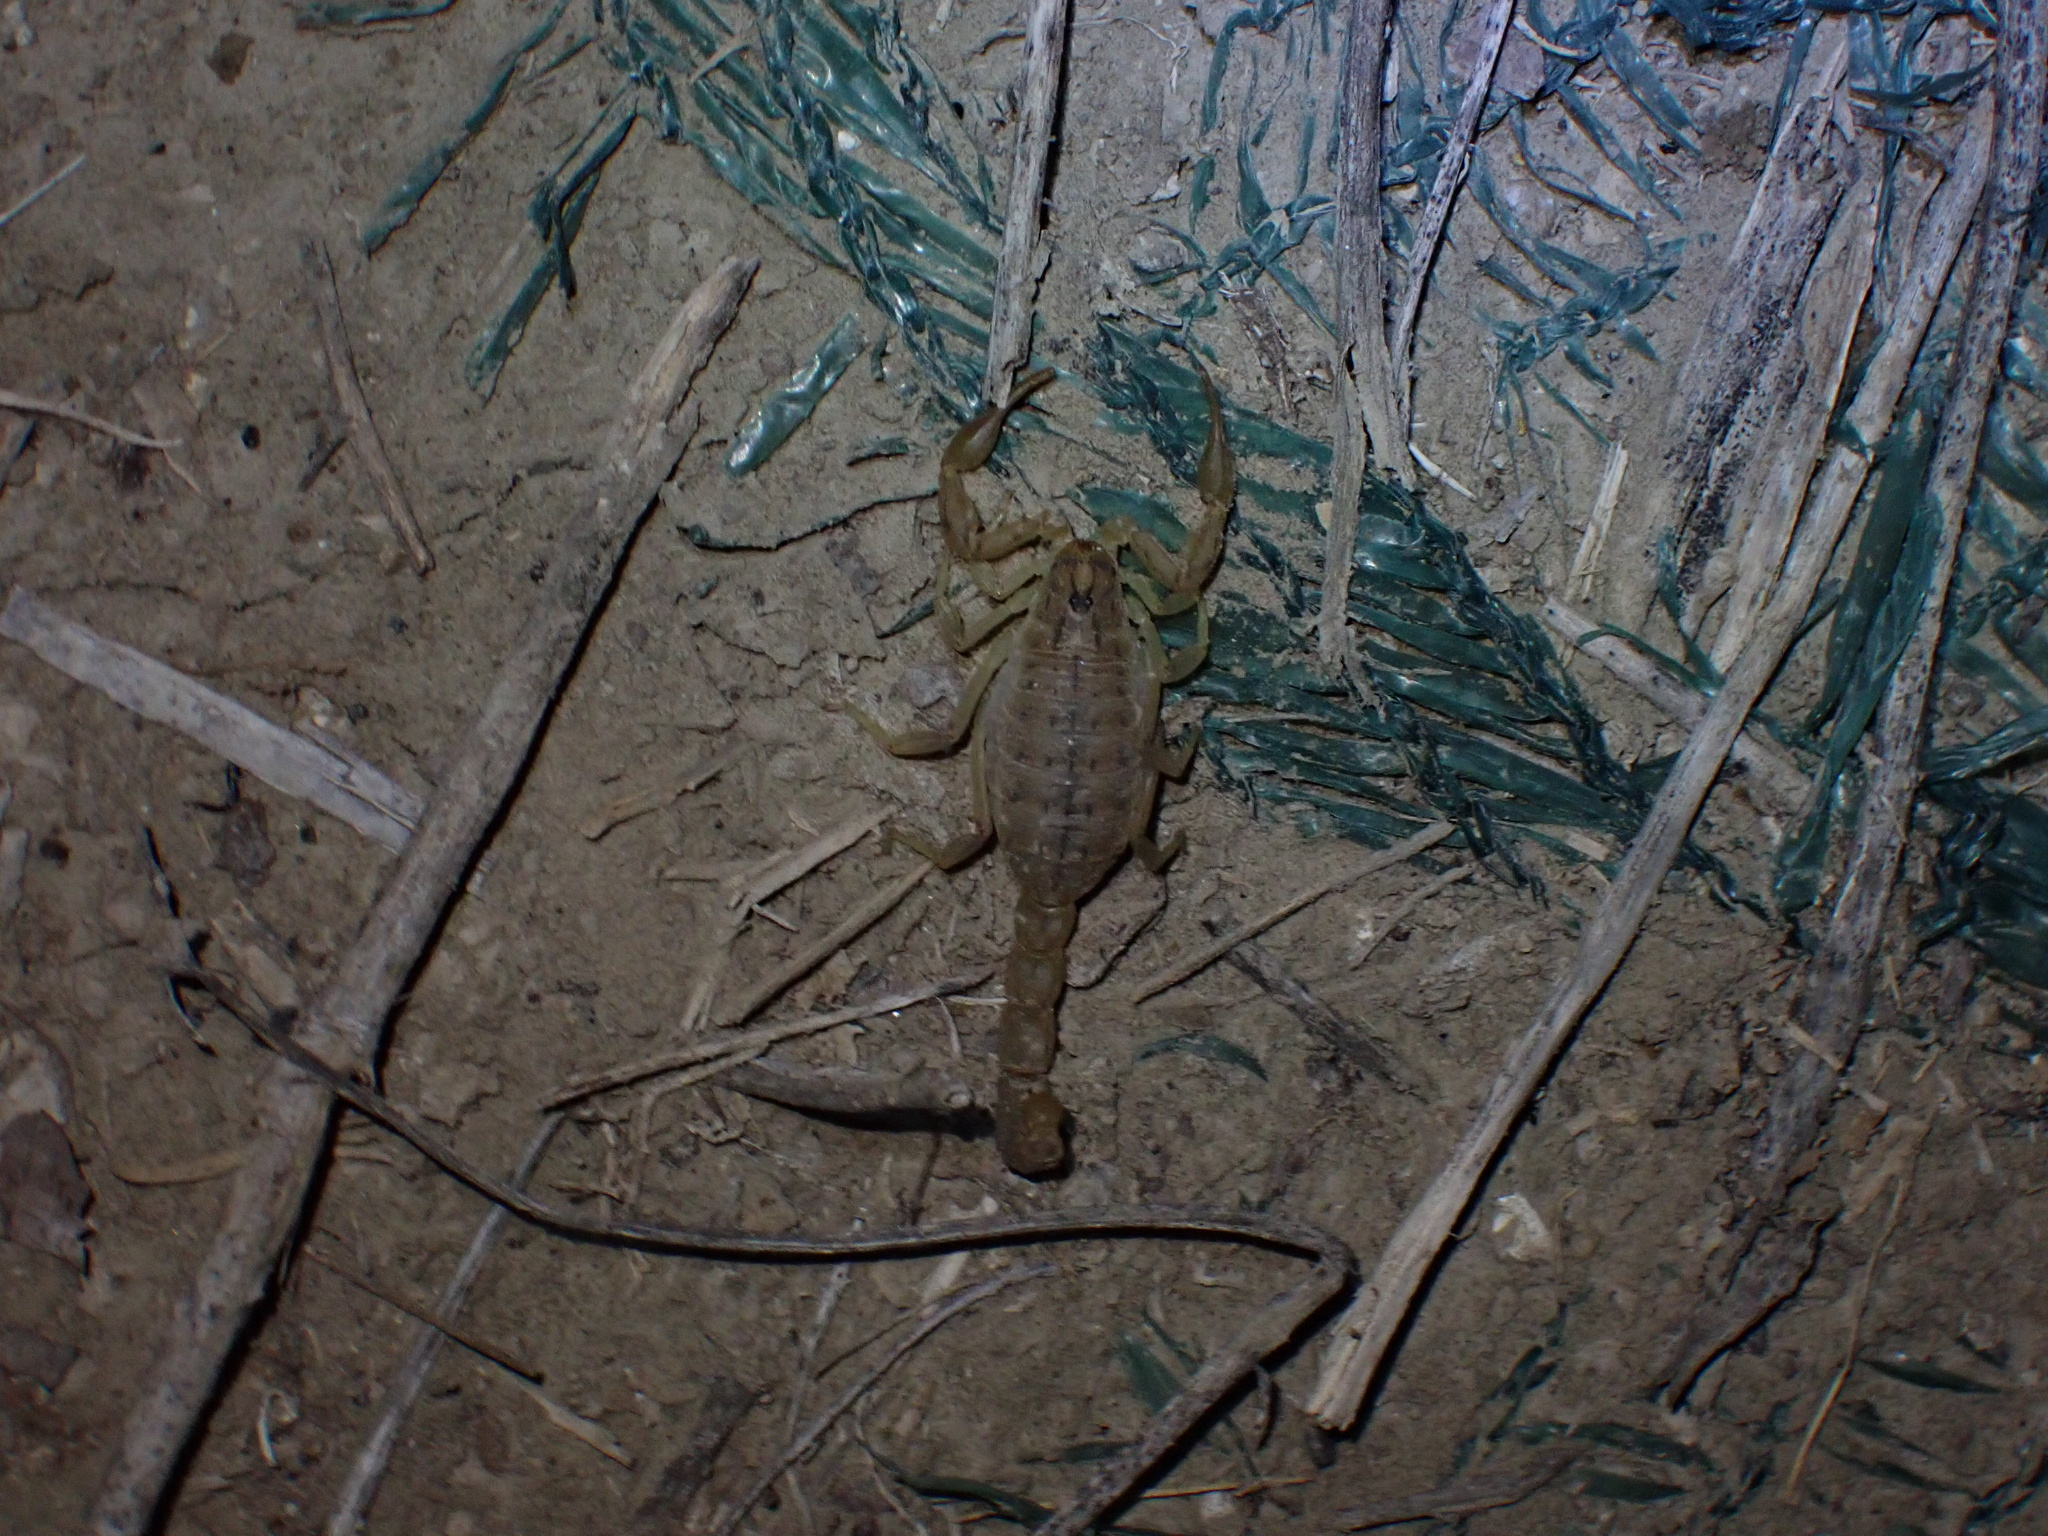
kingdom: Animalia
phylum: Arthropoda
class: Arachnida
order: Scorpiones
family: Buthidae
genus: Mesobuthus
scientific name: Mesobuthus mirshamsii
